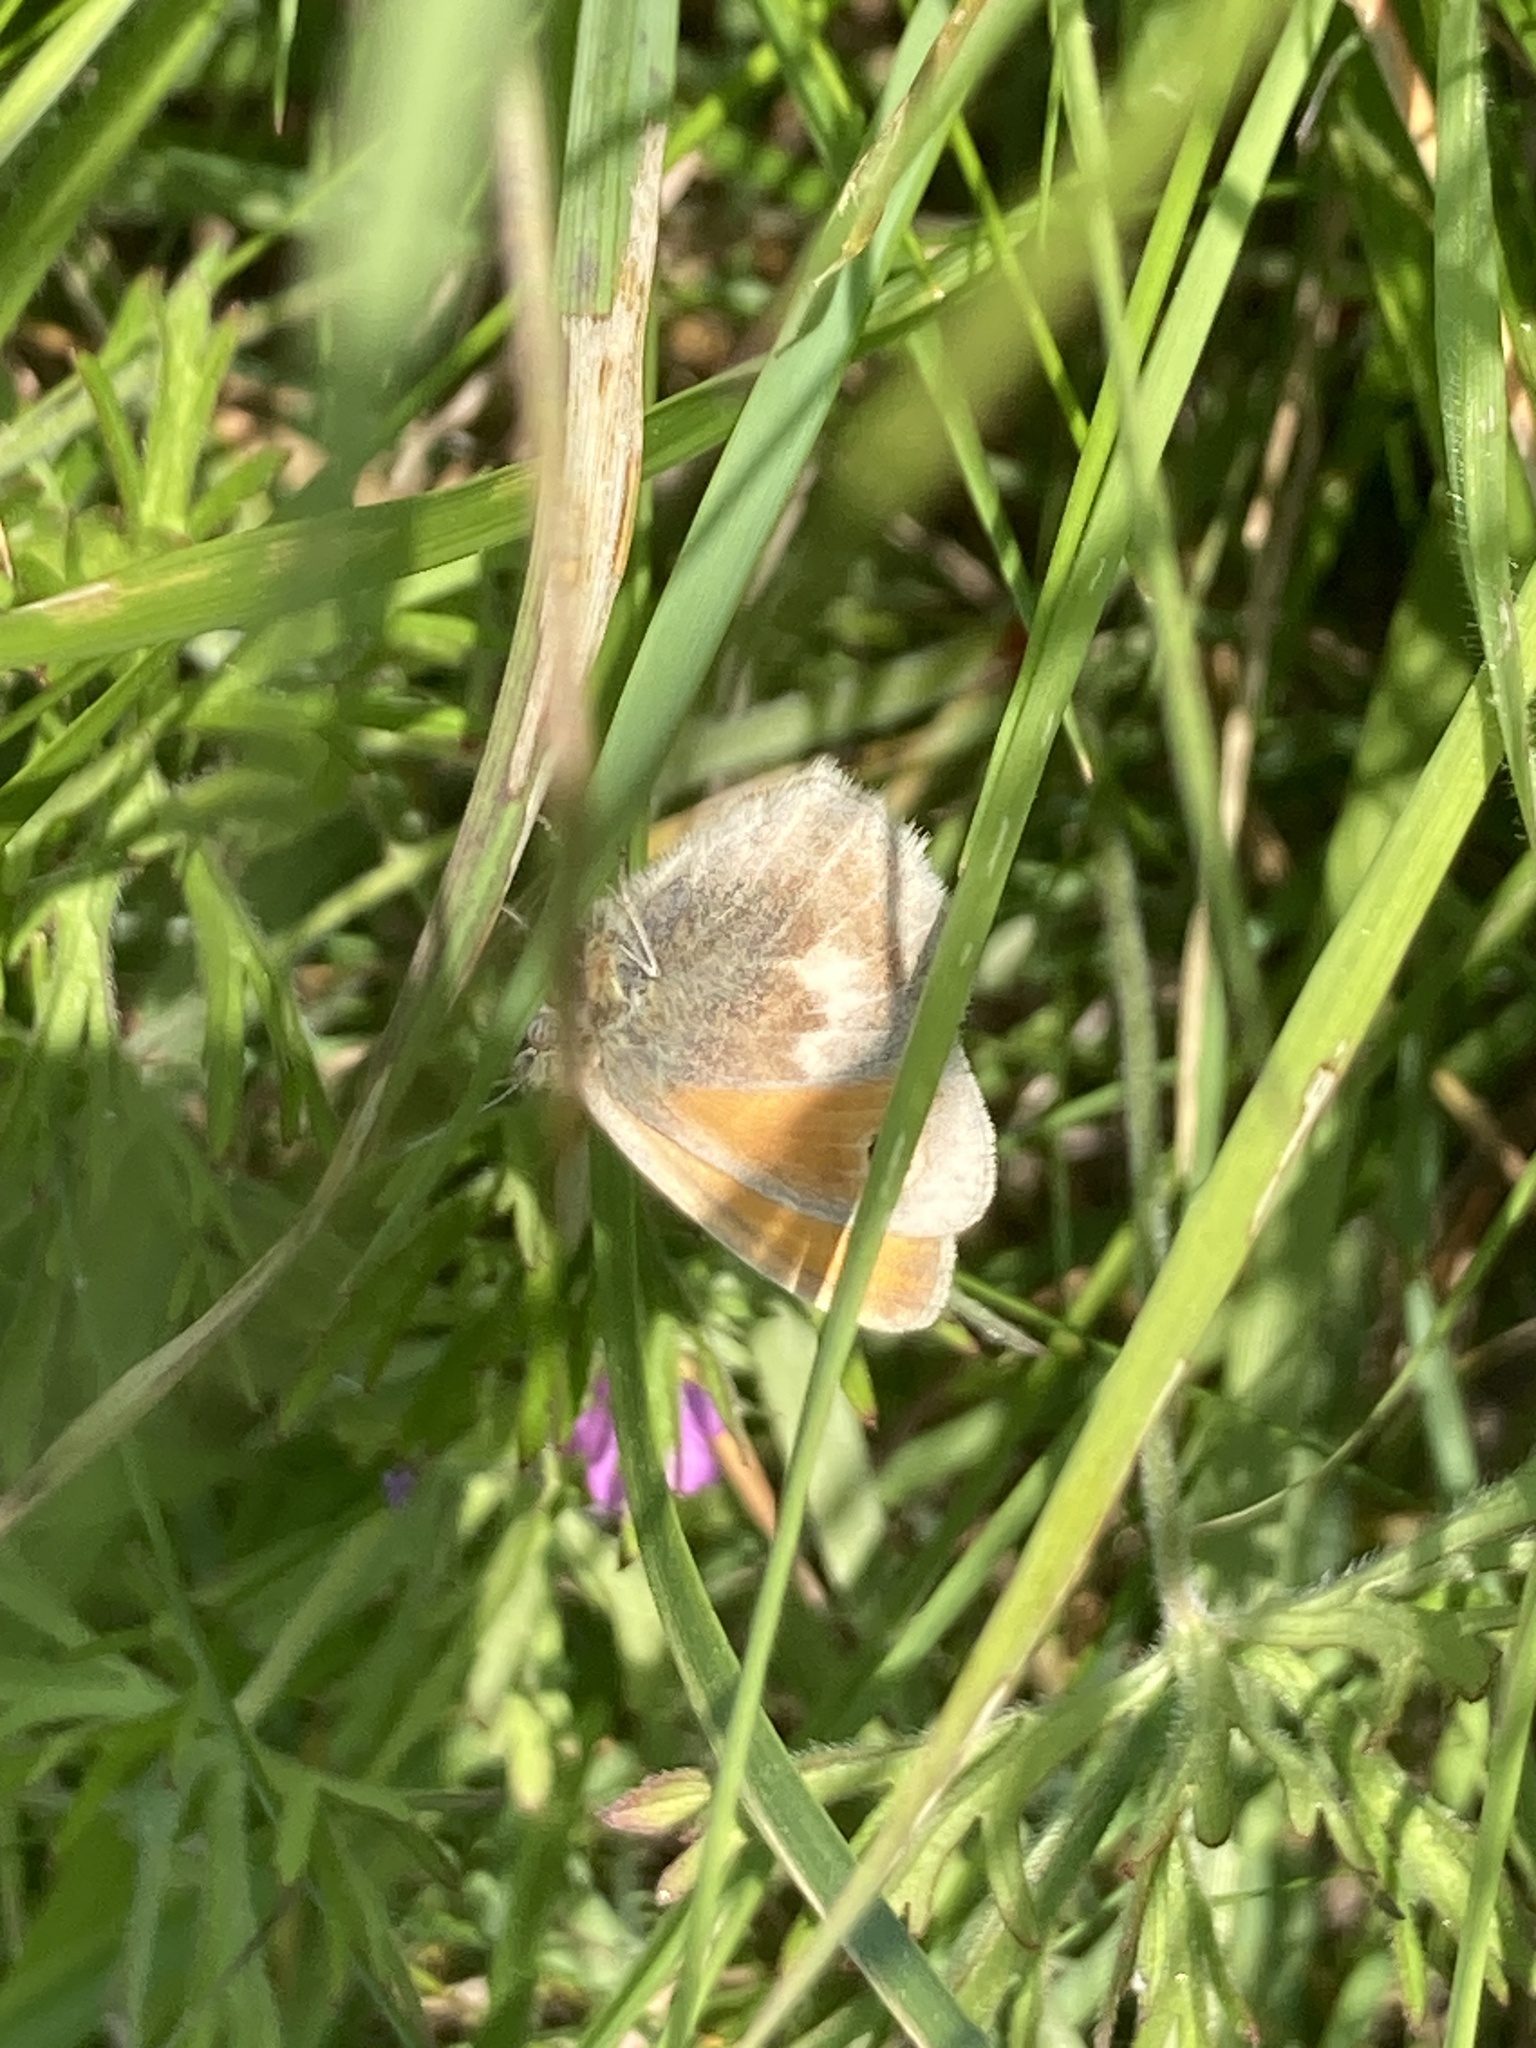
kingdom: Animalia
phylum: Arthropoda
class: Insecta
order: Lepidoptera
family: Nymphalidae
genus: Coenonympha
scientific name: Coenonympha pamphilus
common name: Small heath
